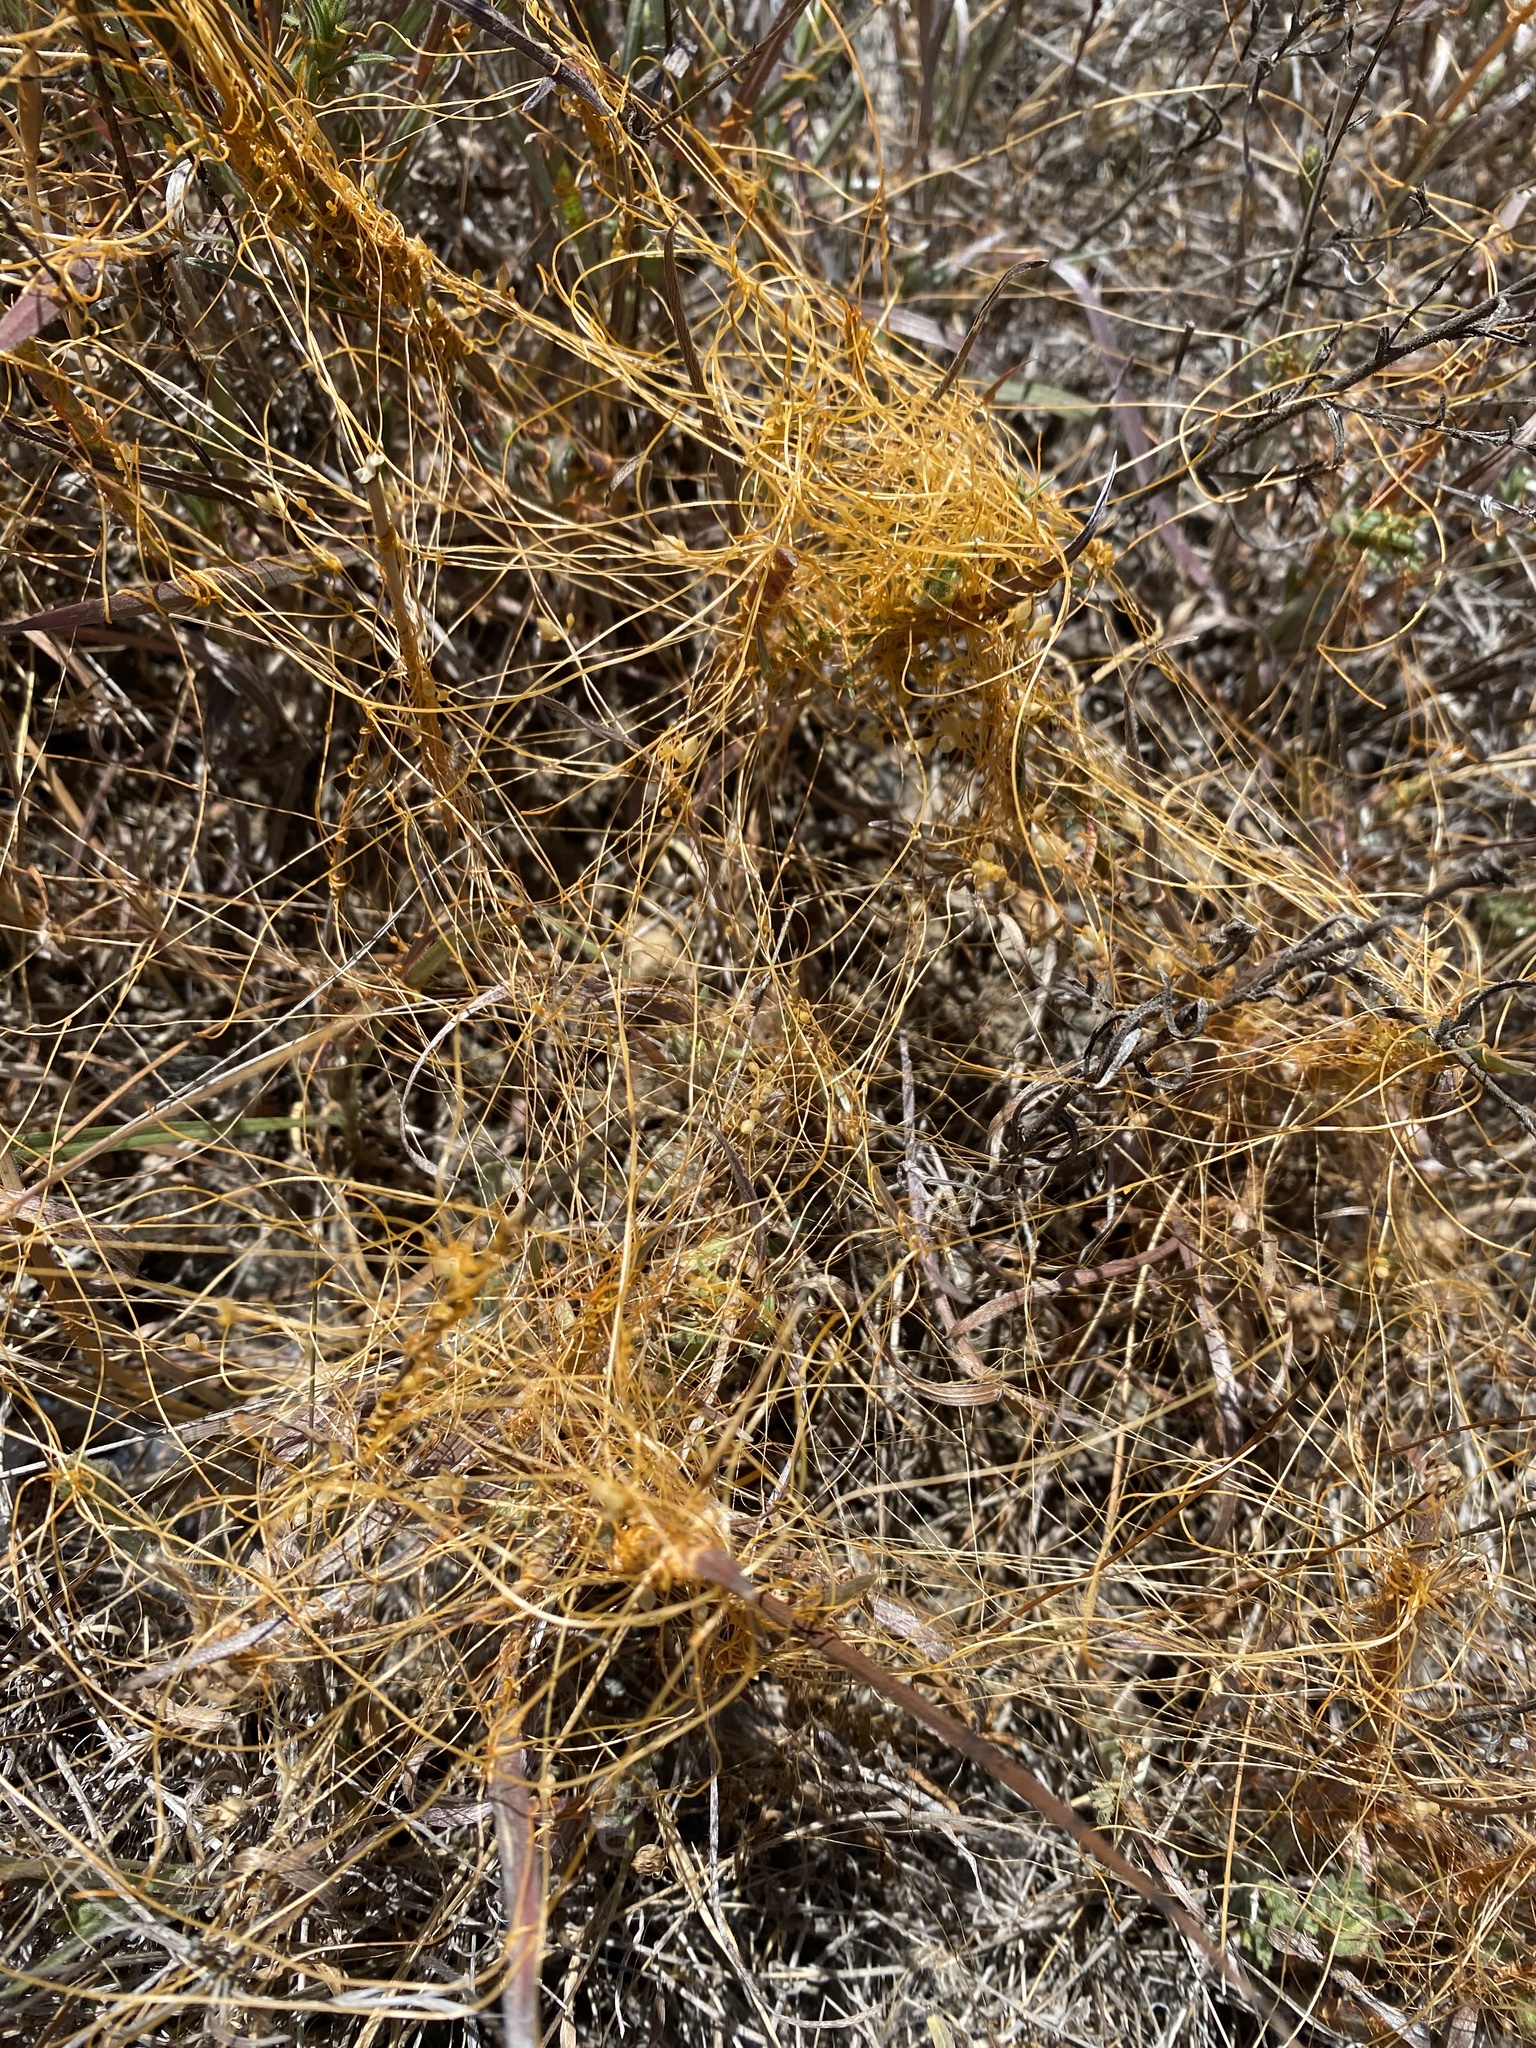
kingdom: Plantae
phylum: Tracheophyta
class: Magnoliopsida
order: Solanales
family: Convolvulaceae
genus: Cuscuta
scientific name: Cuscuta californica
